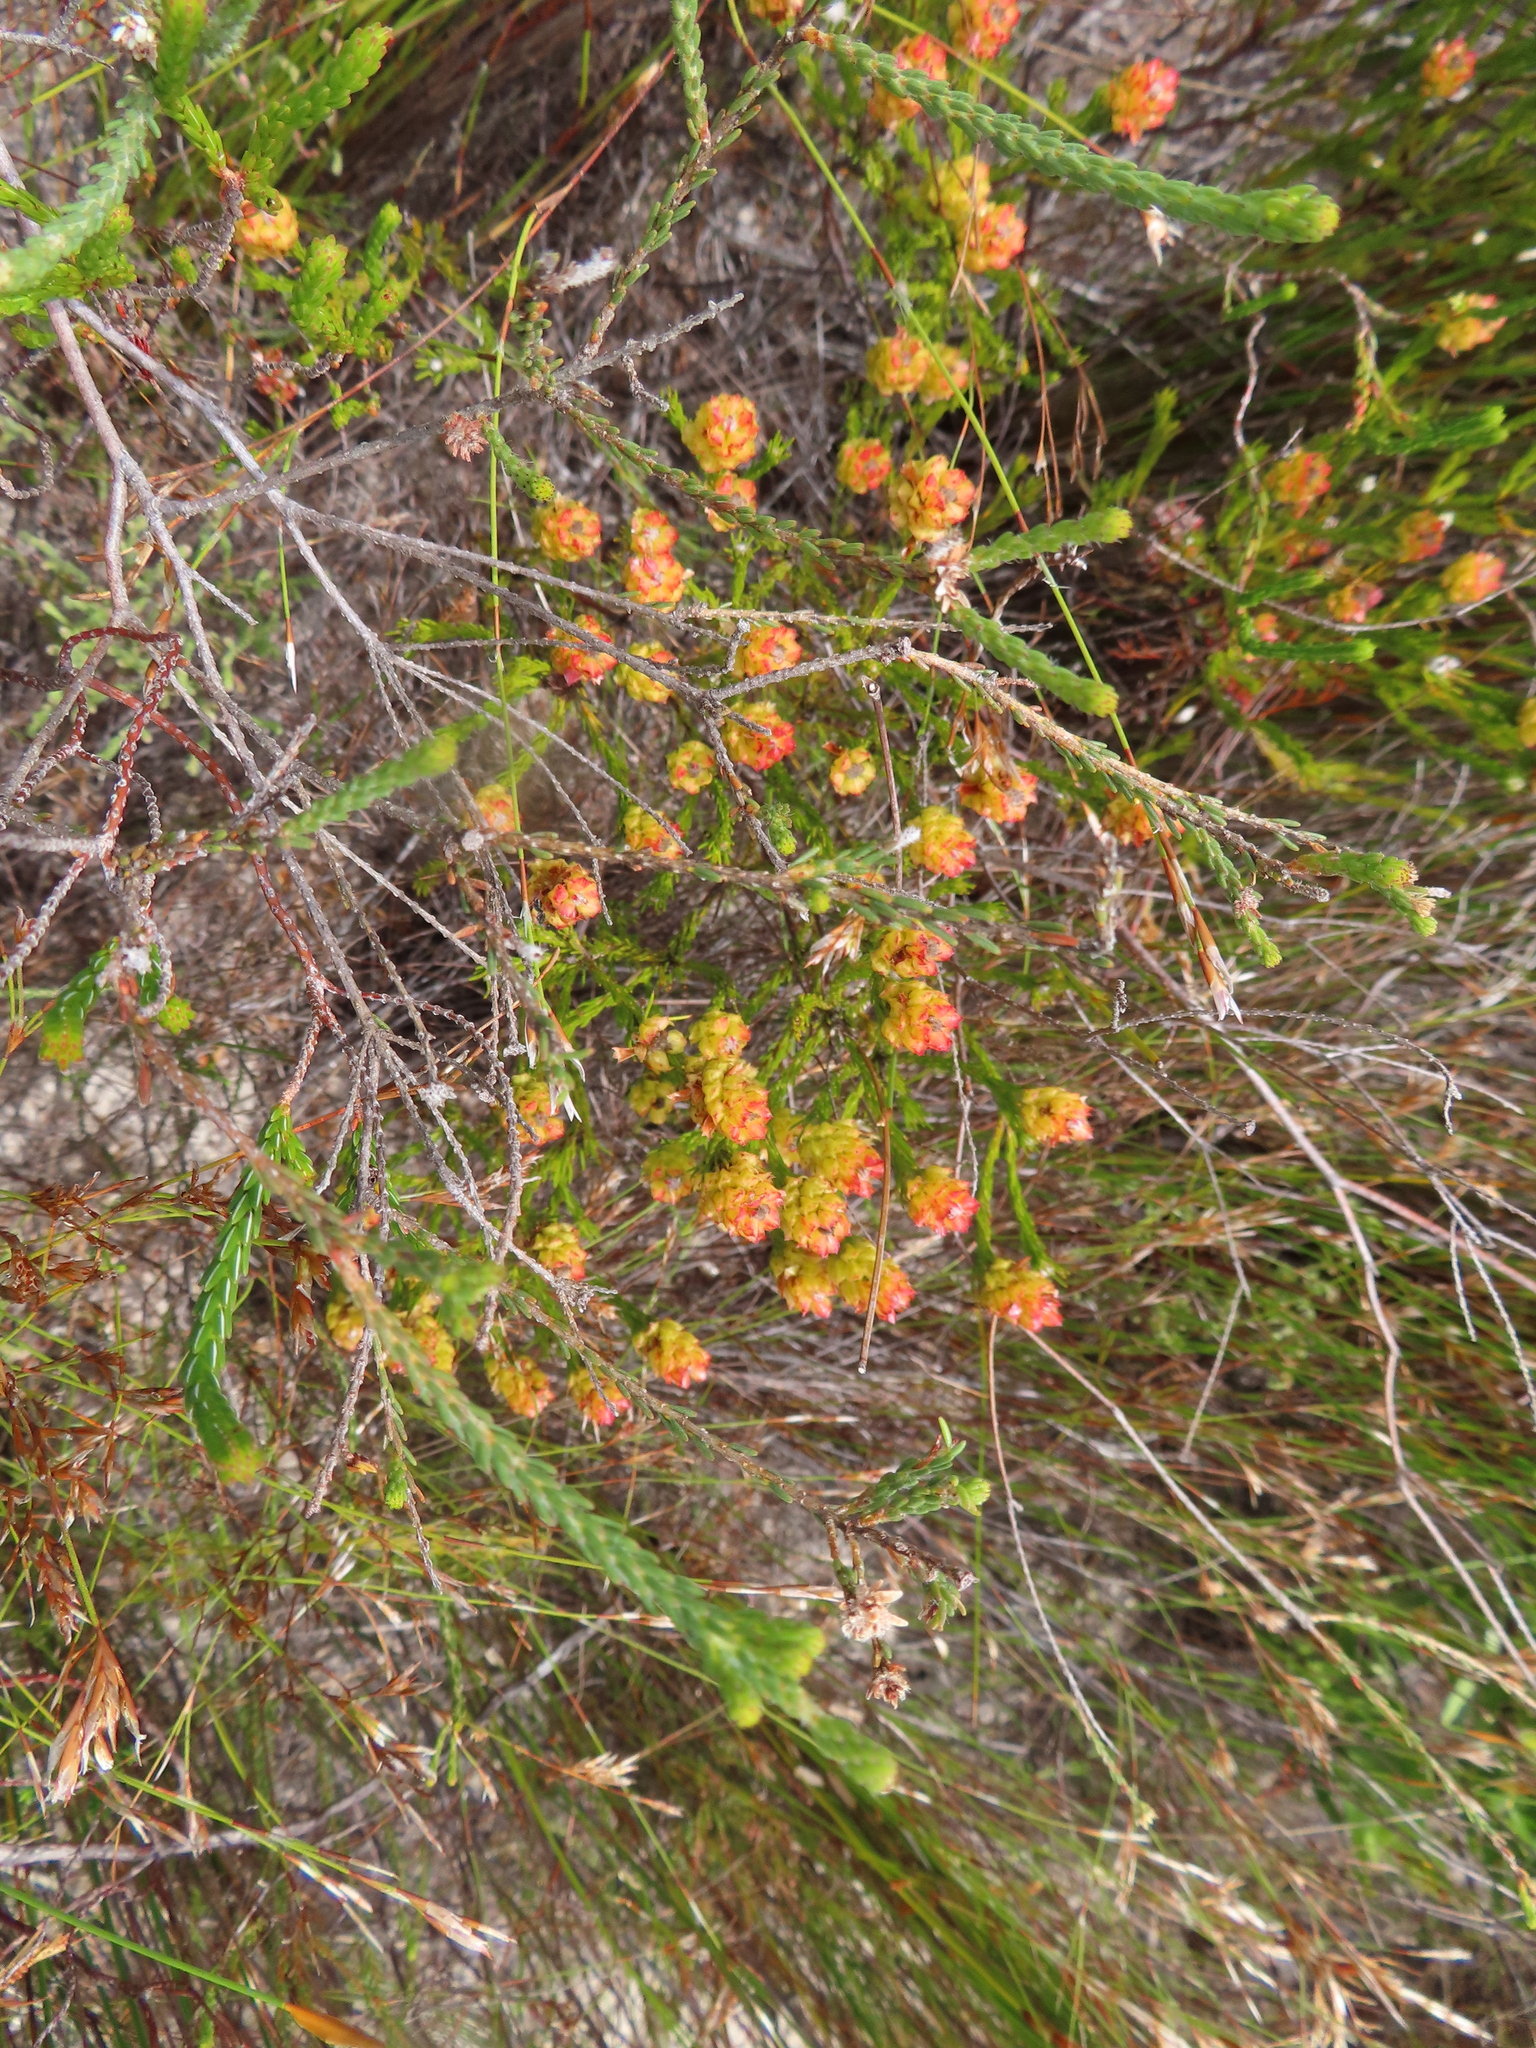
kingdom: Plantae
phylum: Tracheophyta
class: Magnoliopsida
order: Proteales
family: Proteaceae
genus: Spatalla
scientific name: Spatalla squamata
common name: Silky spoon
